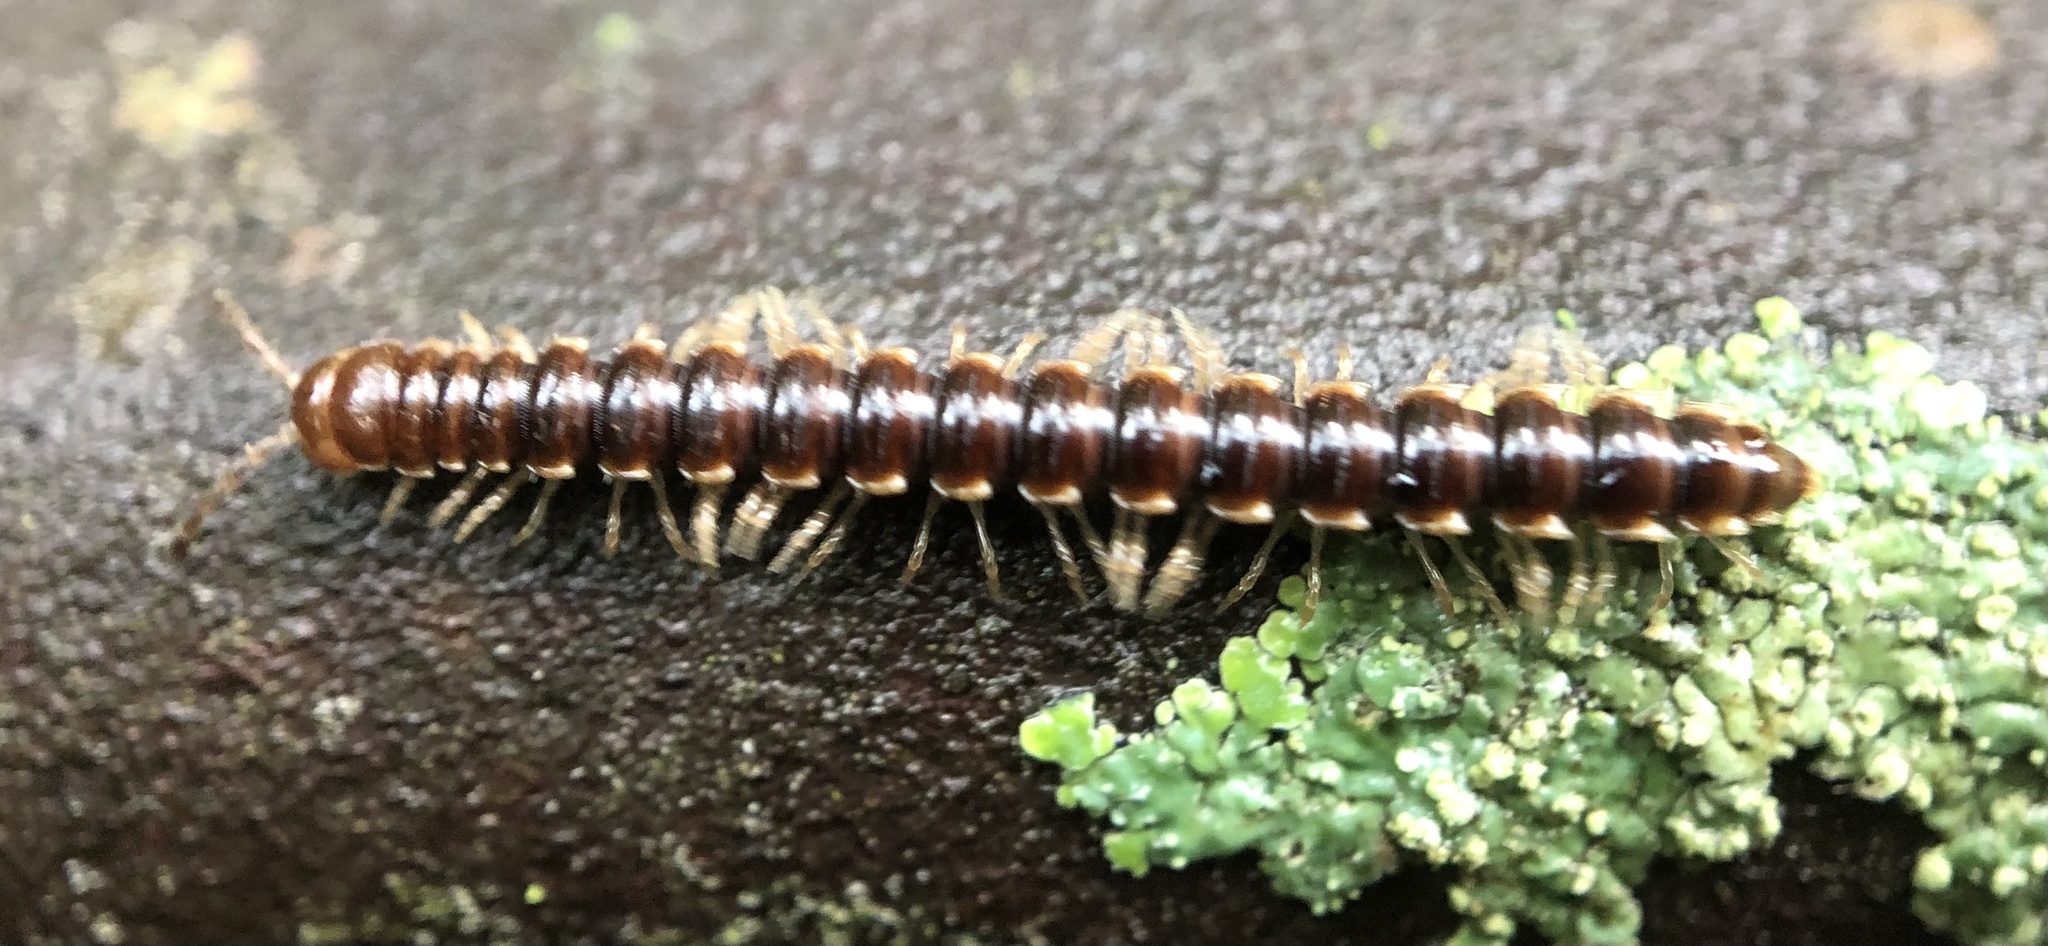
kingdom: Animalia
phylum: Arthropoda
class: Diplopoda
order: Polydesmida
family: Paradoxosomatidae
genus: Oxidus
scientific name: Oxidus gracilis
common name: Greenhouse millipede
